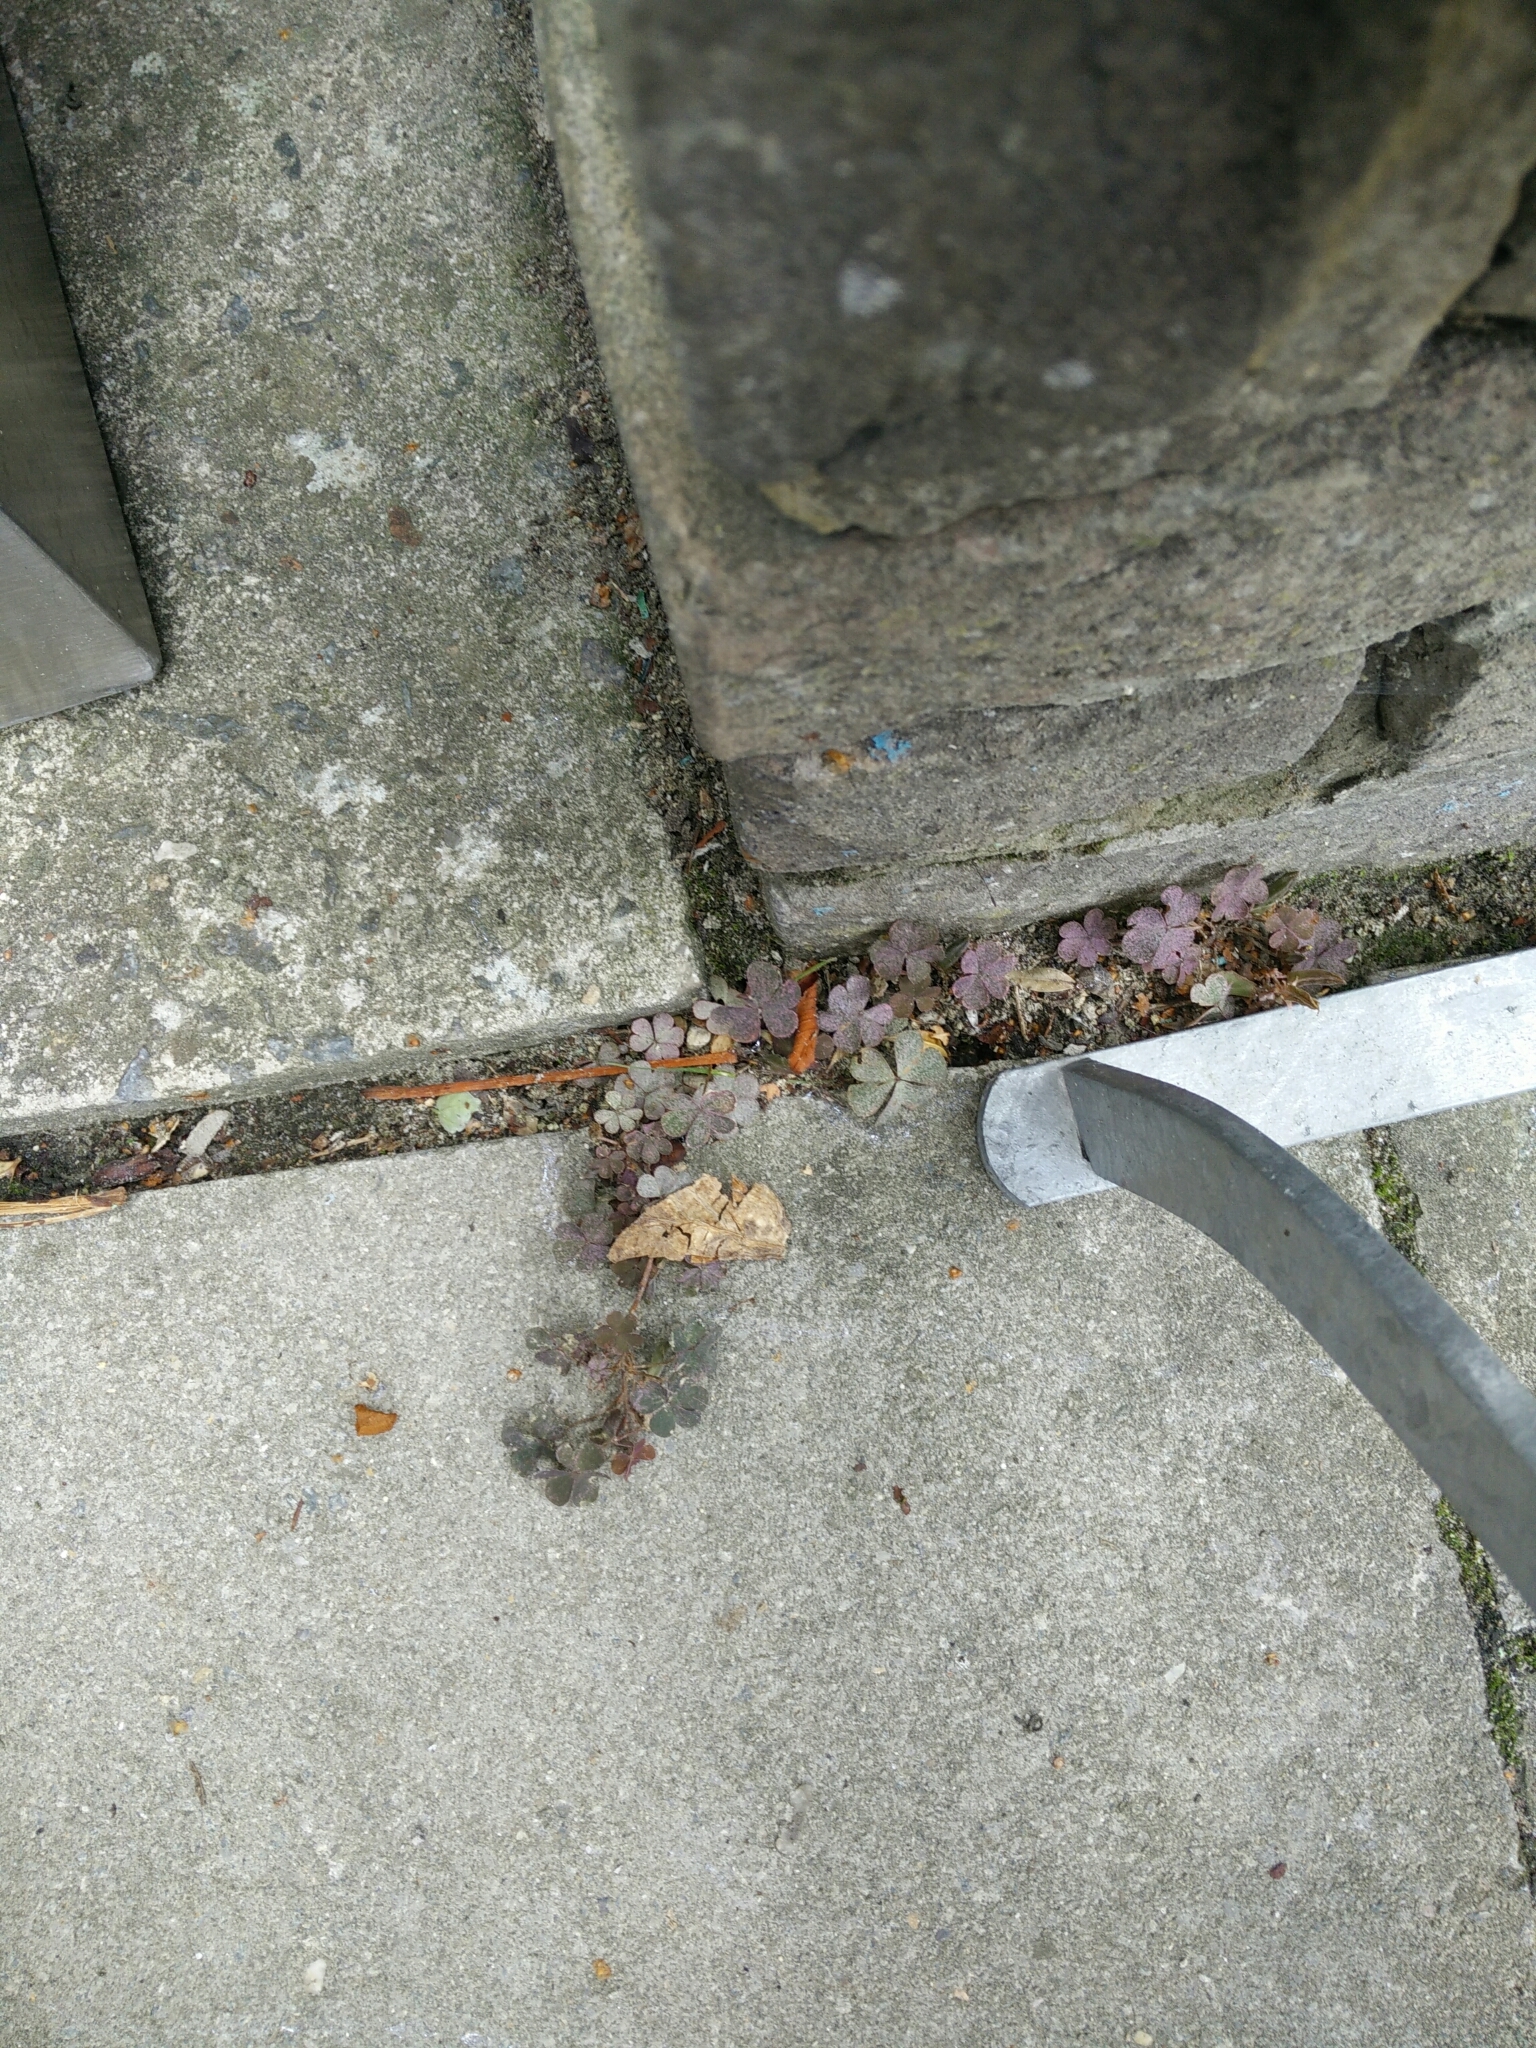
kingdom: Plantae
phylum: Tracheophyta
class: Magnoliopsida
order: Oxalidales
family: Oxalidaceae
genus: Oxalis
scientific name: Oxalis corniculata
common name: Procumbent yellow-sorrel
